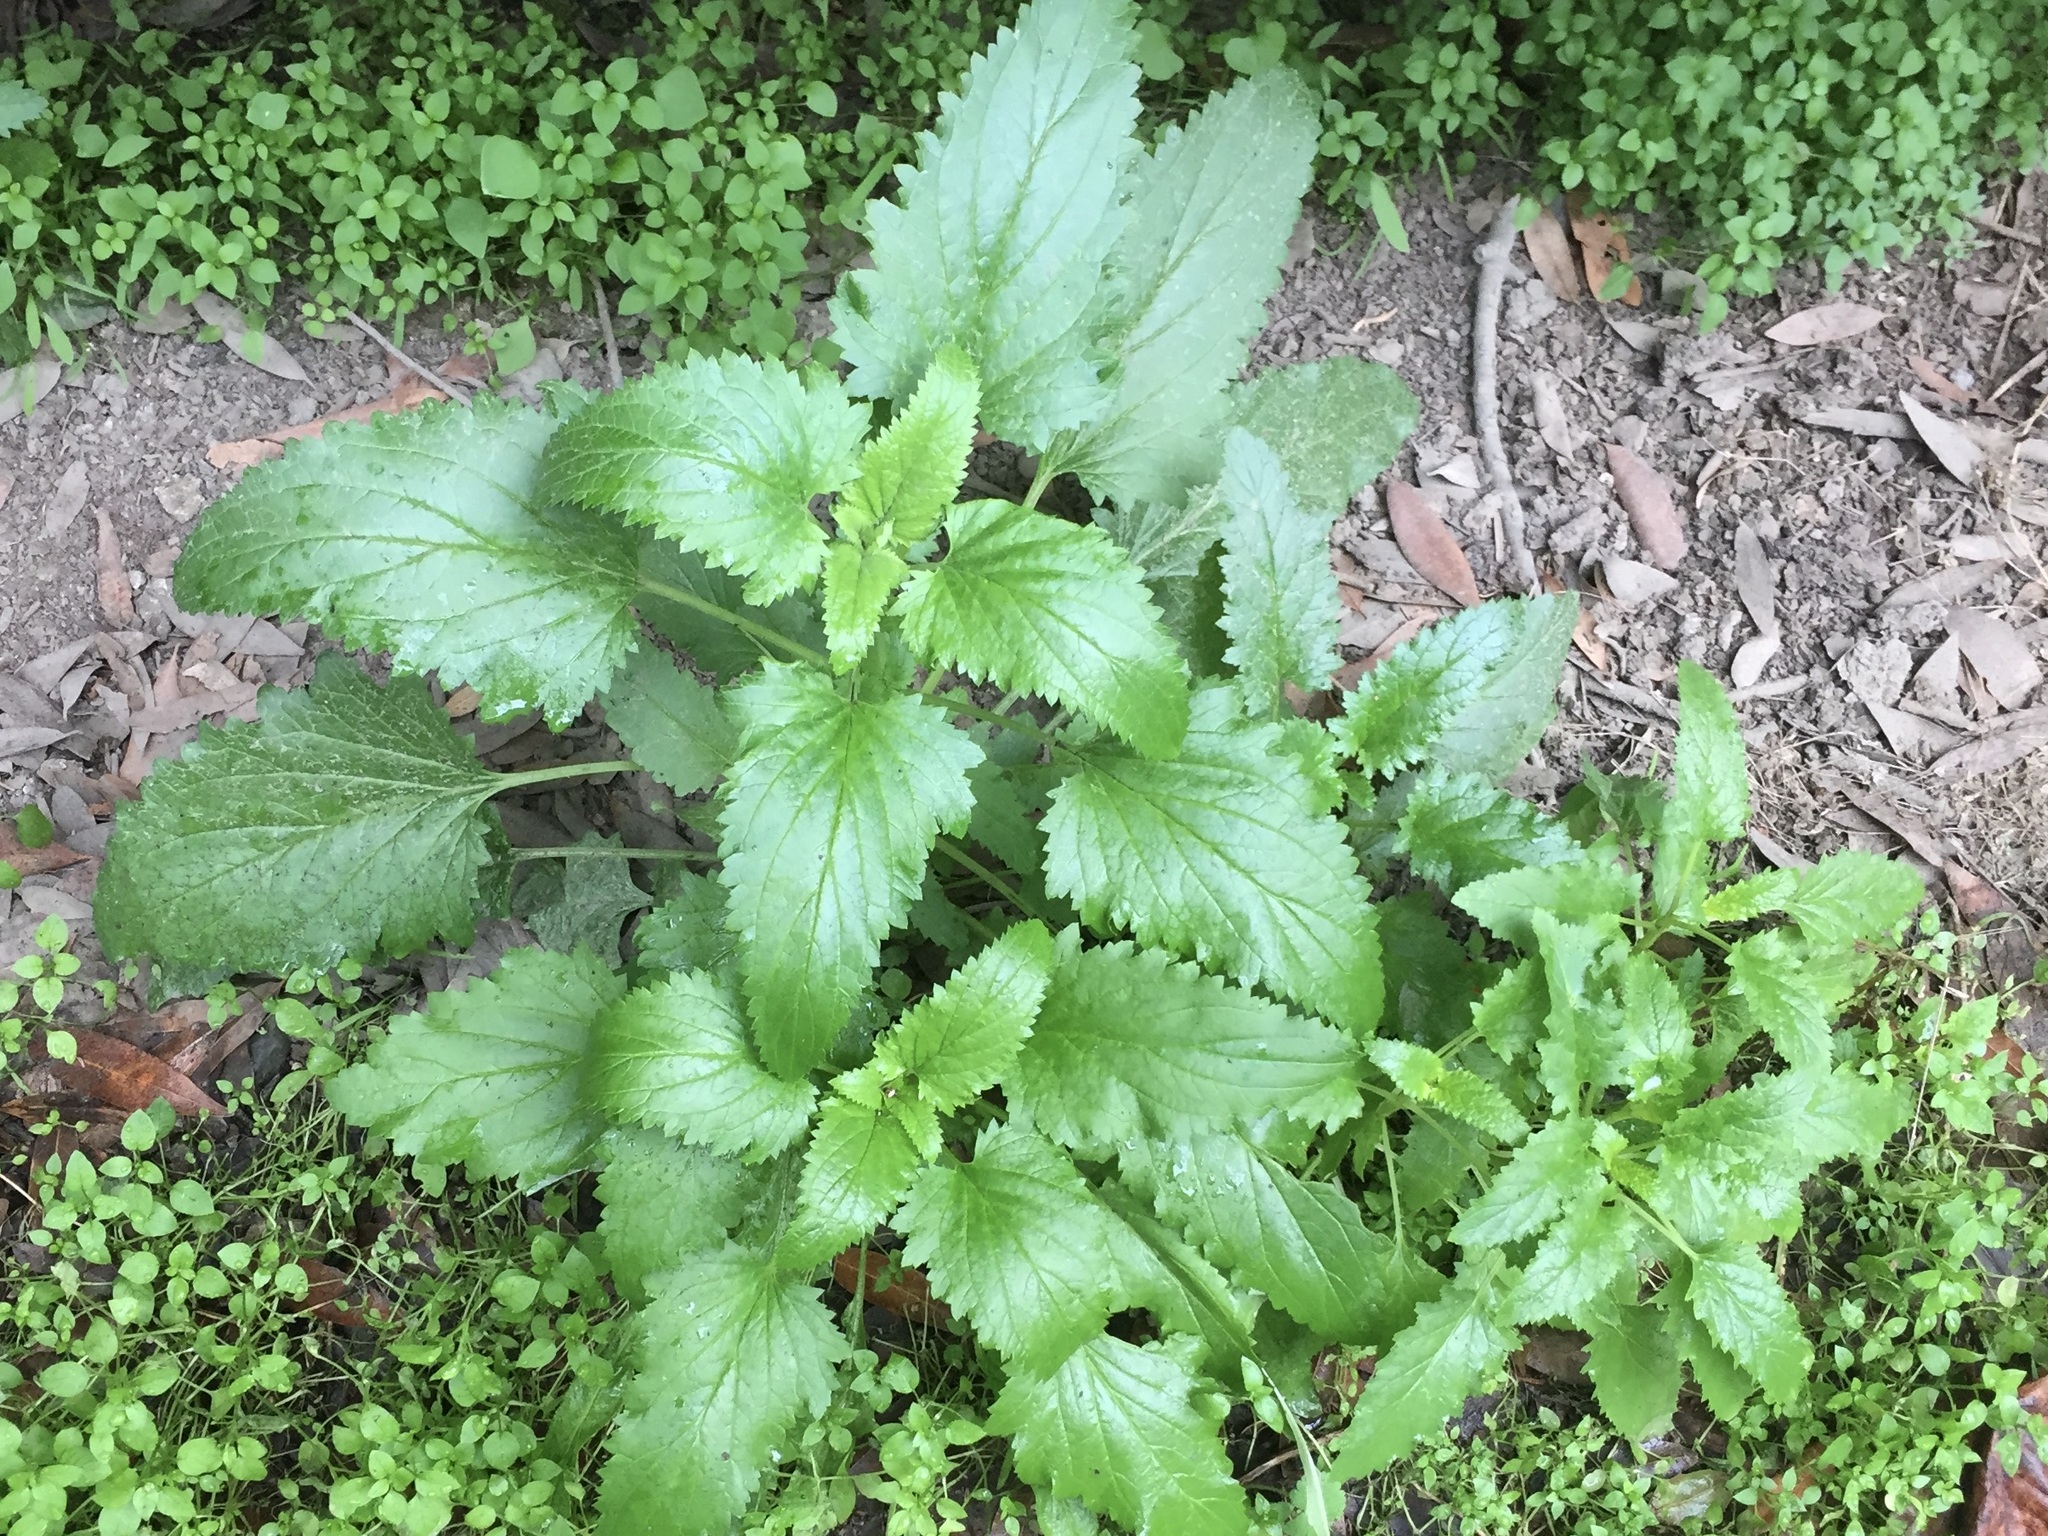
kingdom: Plantae
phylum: Tracheophyta
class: Magnoliopsida
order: Lamiales
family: Scrophulariaceae
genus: Scrophularia
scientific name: Scrophularia californica
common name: California figwort
